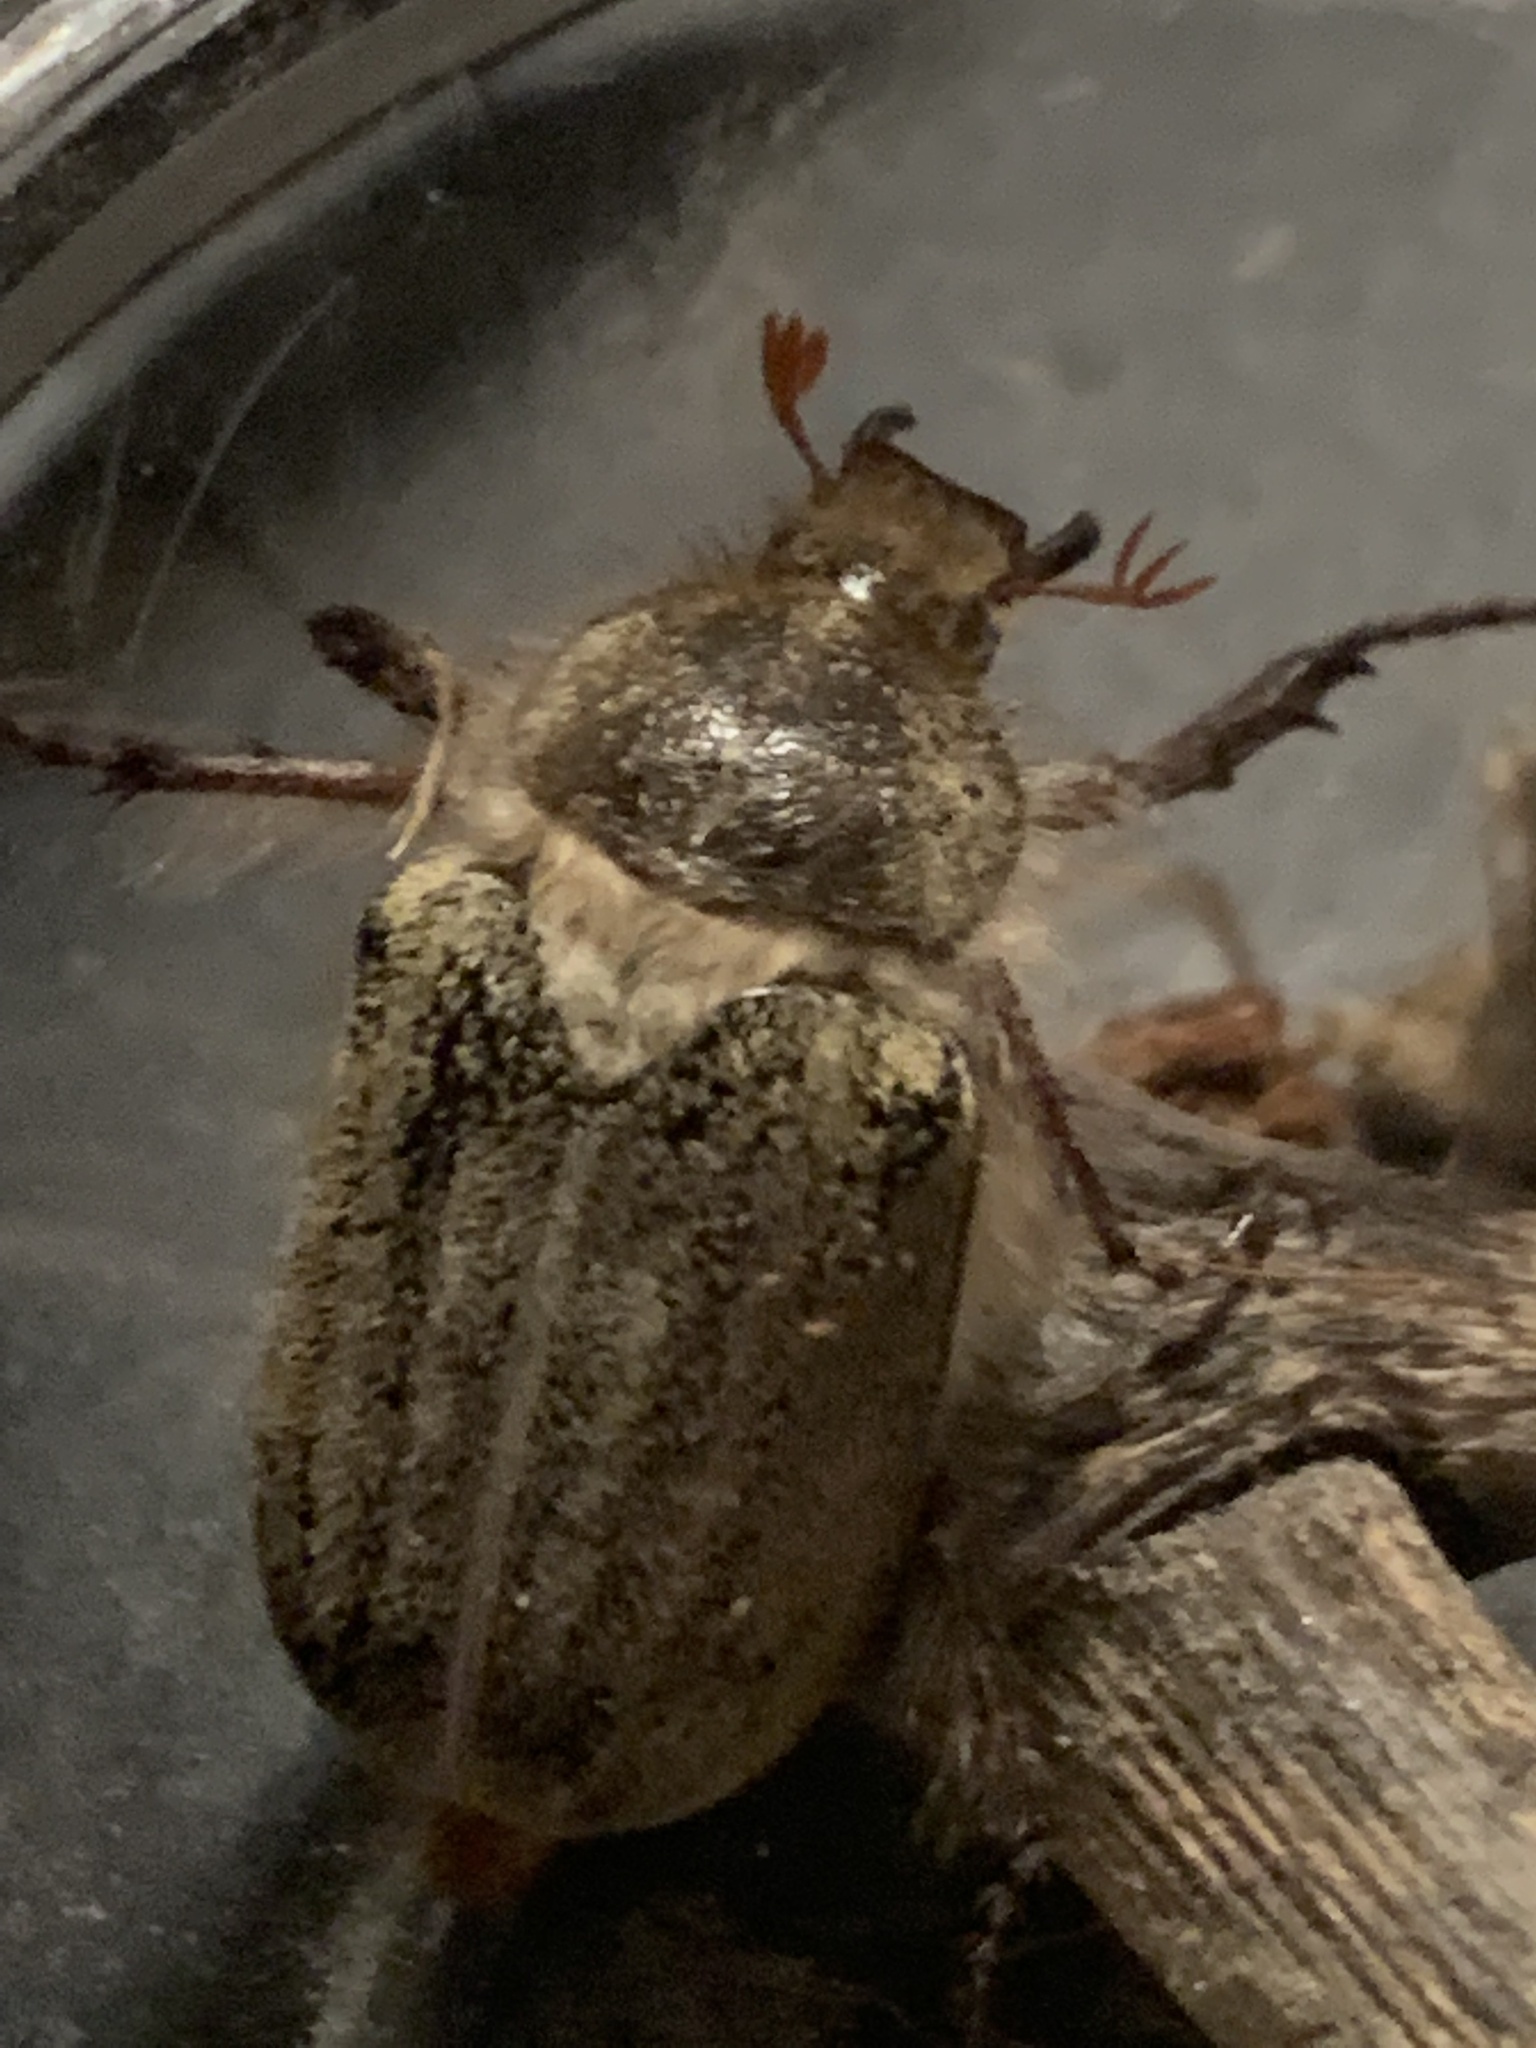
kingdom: Animalia
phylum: Arthropoda
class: Insecta
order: Coleoptera
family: Scarabaeidae
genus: Amblonoxia
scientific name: Amblonoxia harfordi
